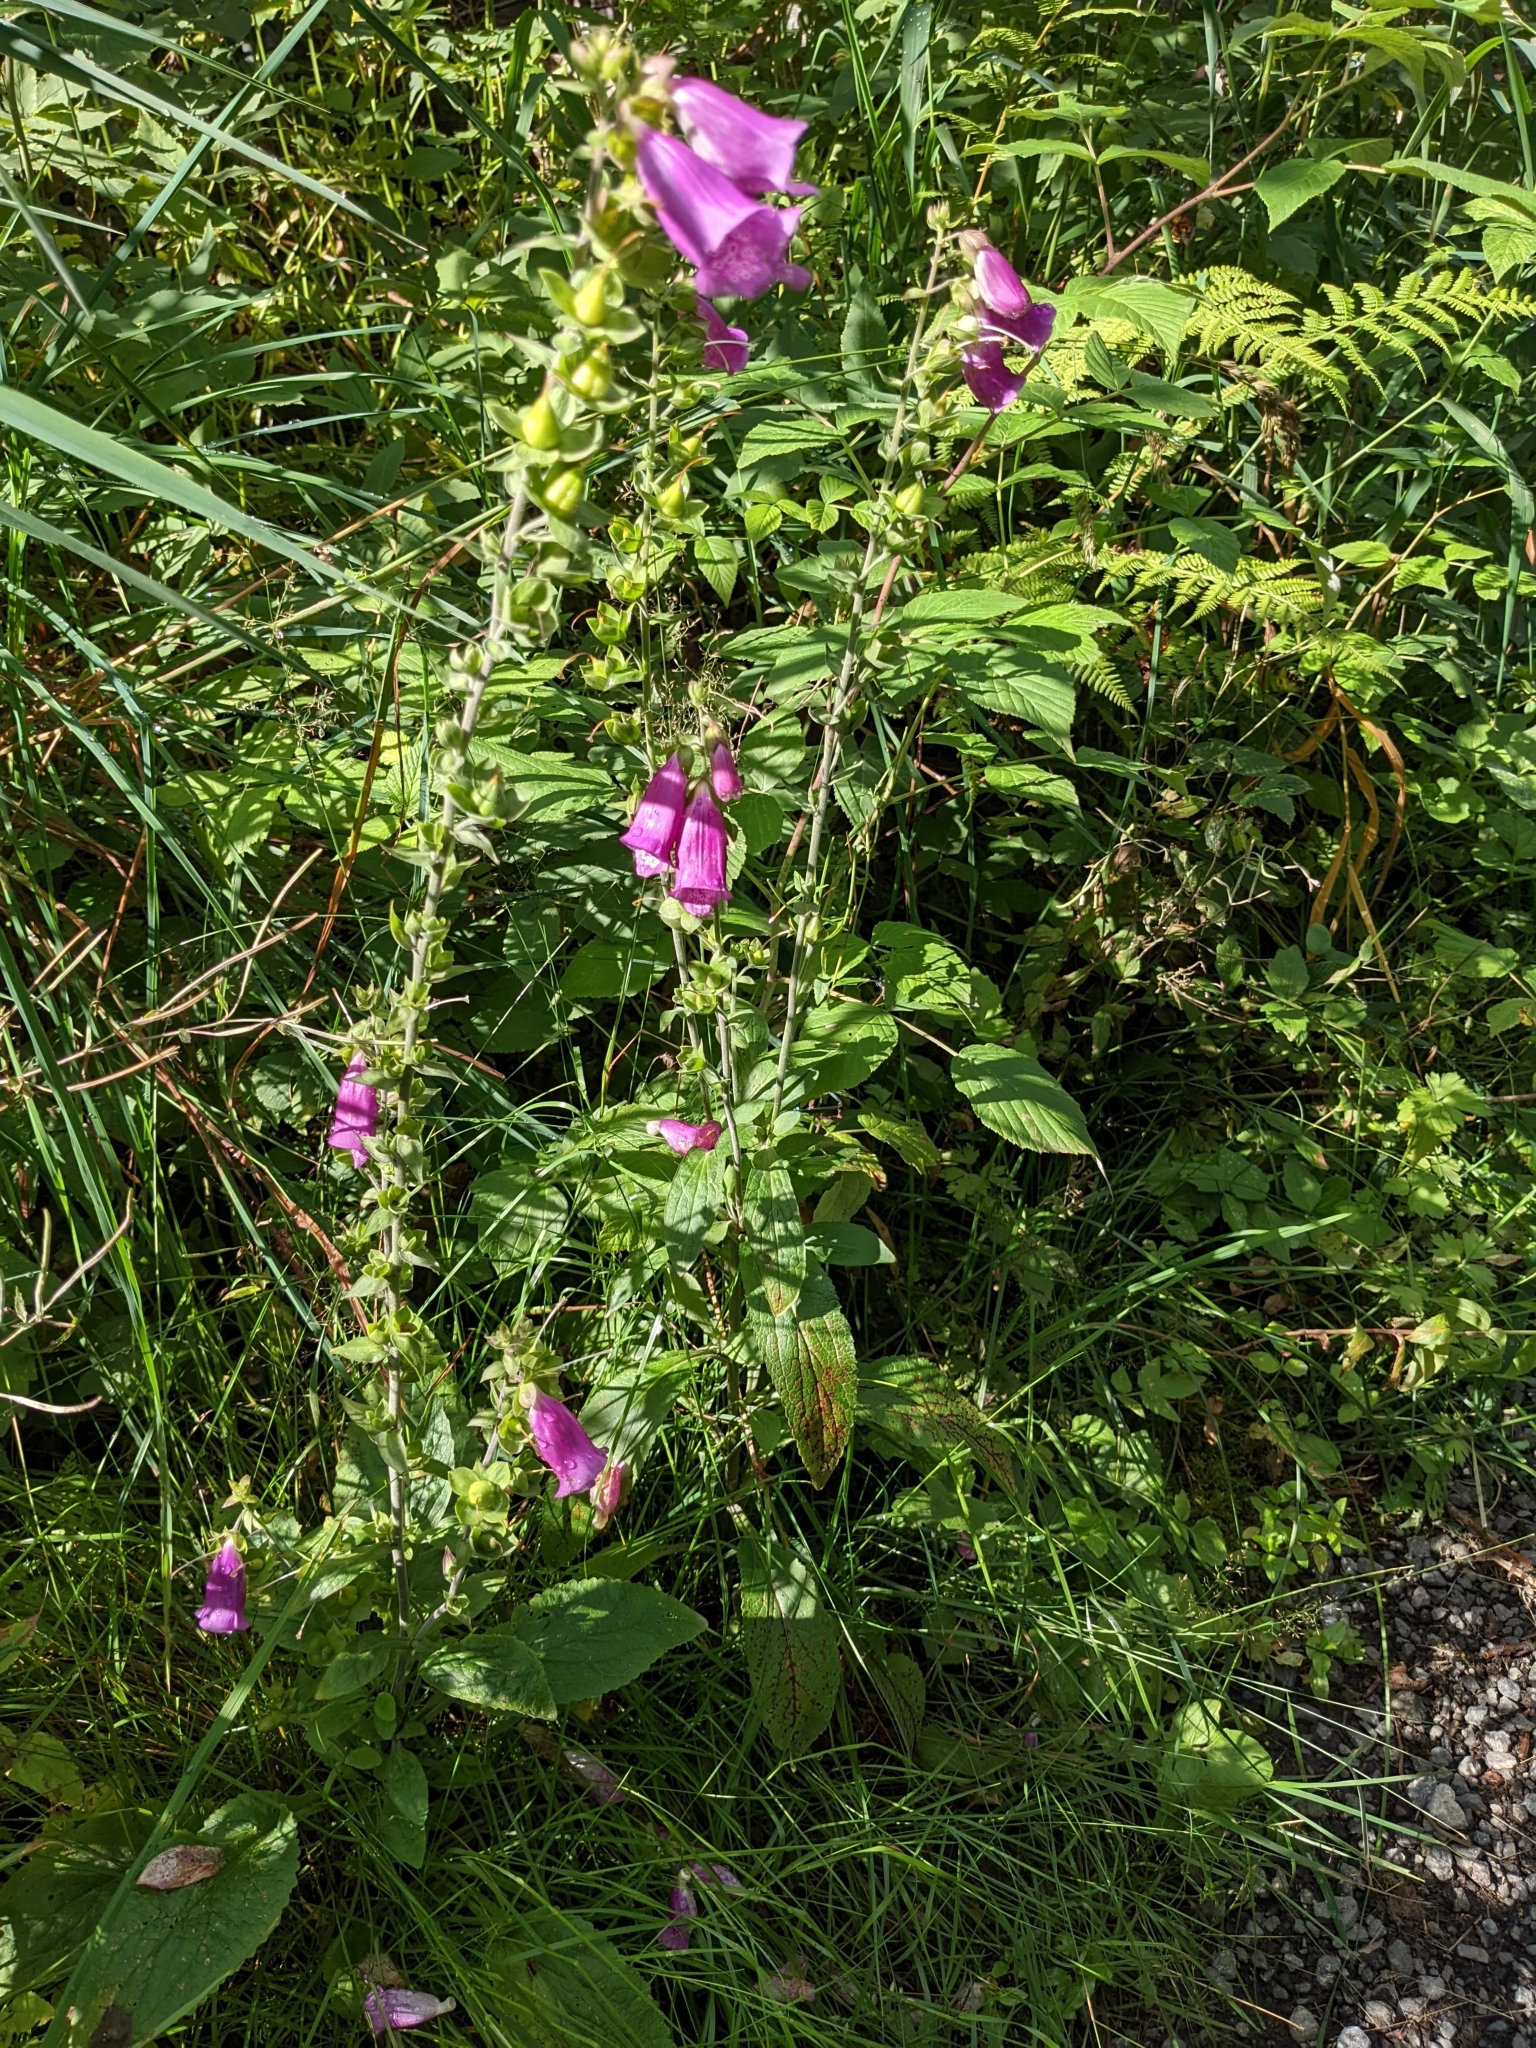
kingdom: Plantae
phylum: Tracheophyta
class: Magnoliopsida
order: Lamiales
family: Plantaginaceae
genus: Digitalis
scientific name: Digitalis purpurea
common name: Foxglove
